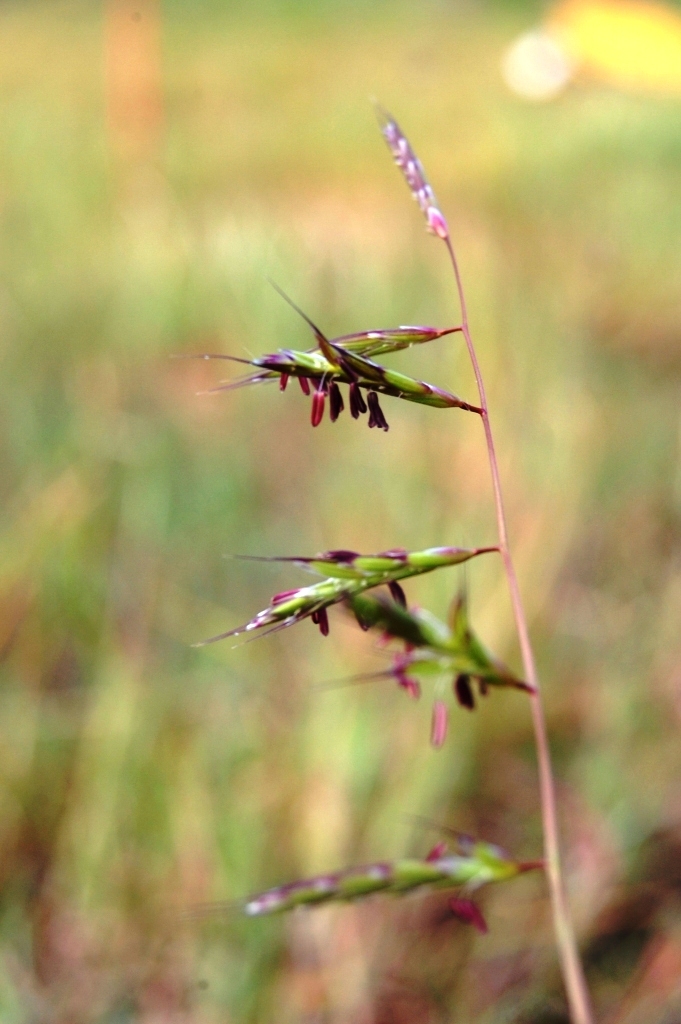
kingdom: Plantae
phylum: Tracheophyta
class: Liliopsida
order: Poales
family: Poaceae
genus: Bromus
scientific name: Bromus carinatus
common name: Mountain brome
